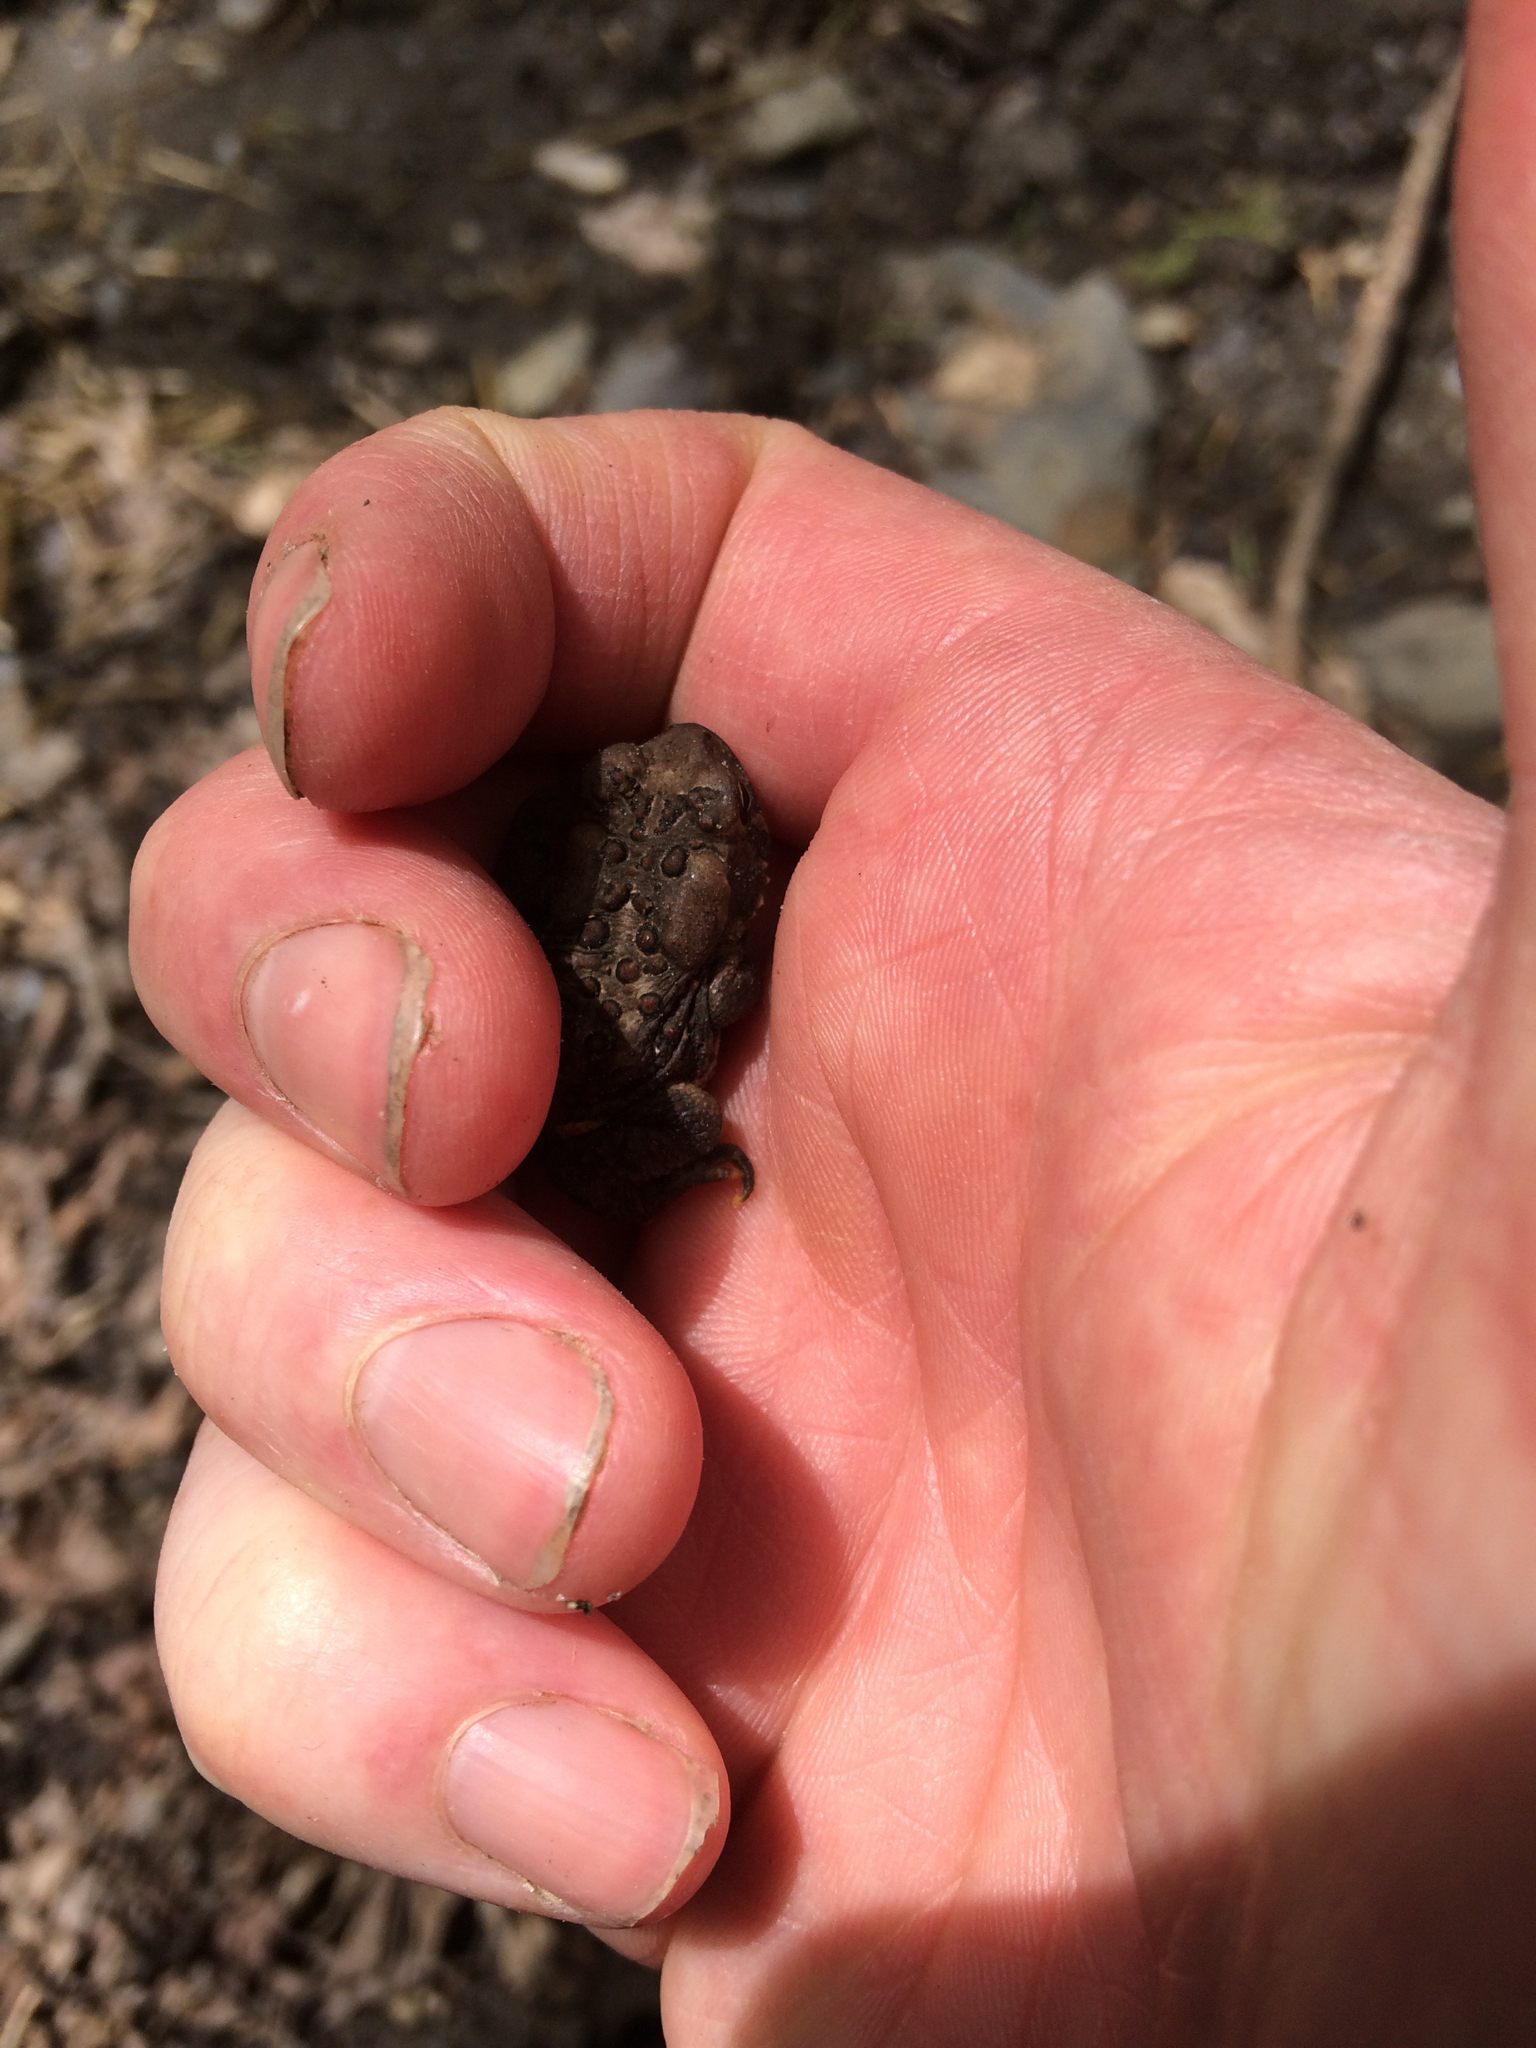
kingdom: Animalia
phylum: Chordata
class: Amphibia
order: Anura
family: Bufonidae
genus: Anaxyrus
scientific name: Anaxyrus americanus
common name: American toad
